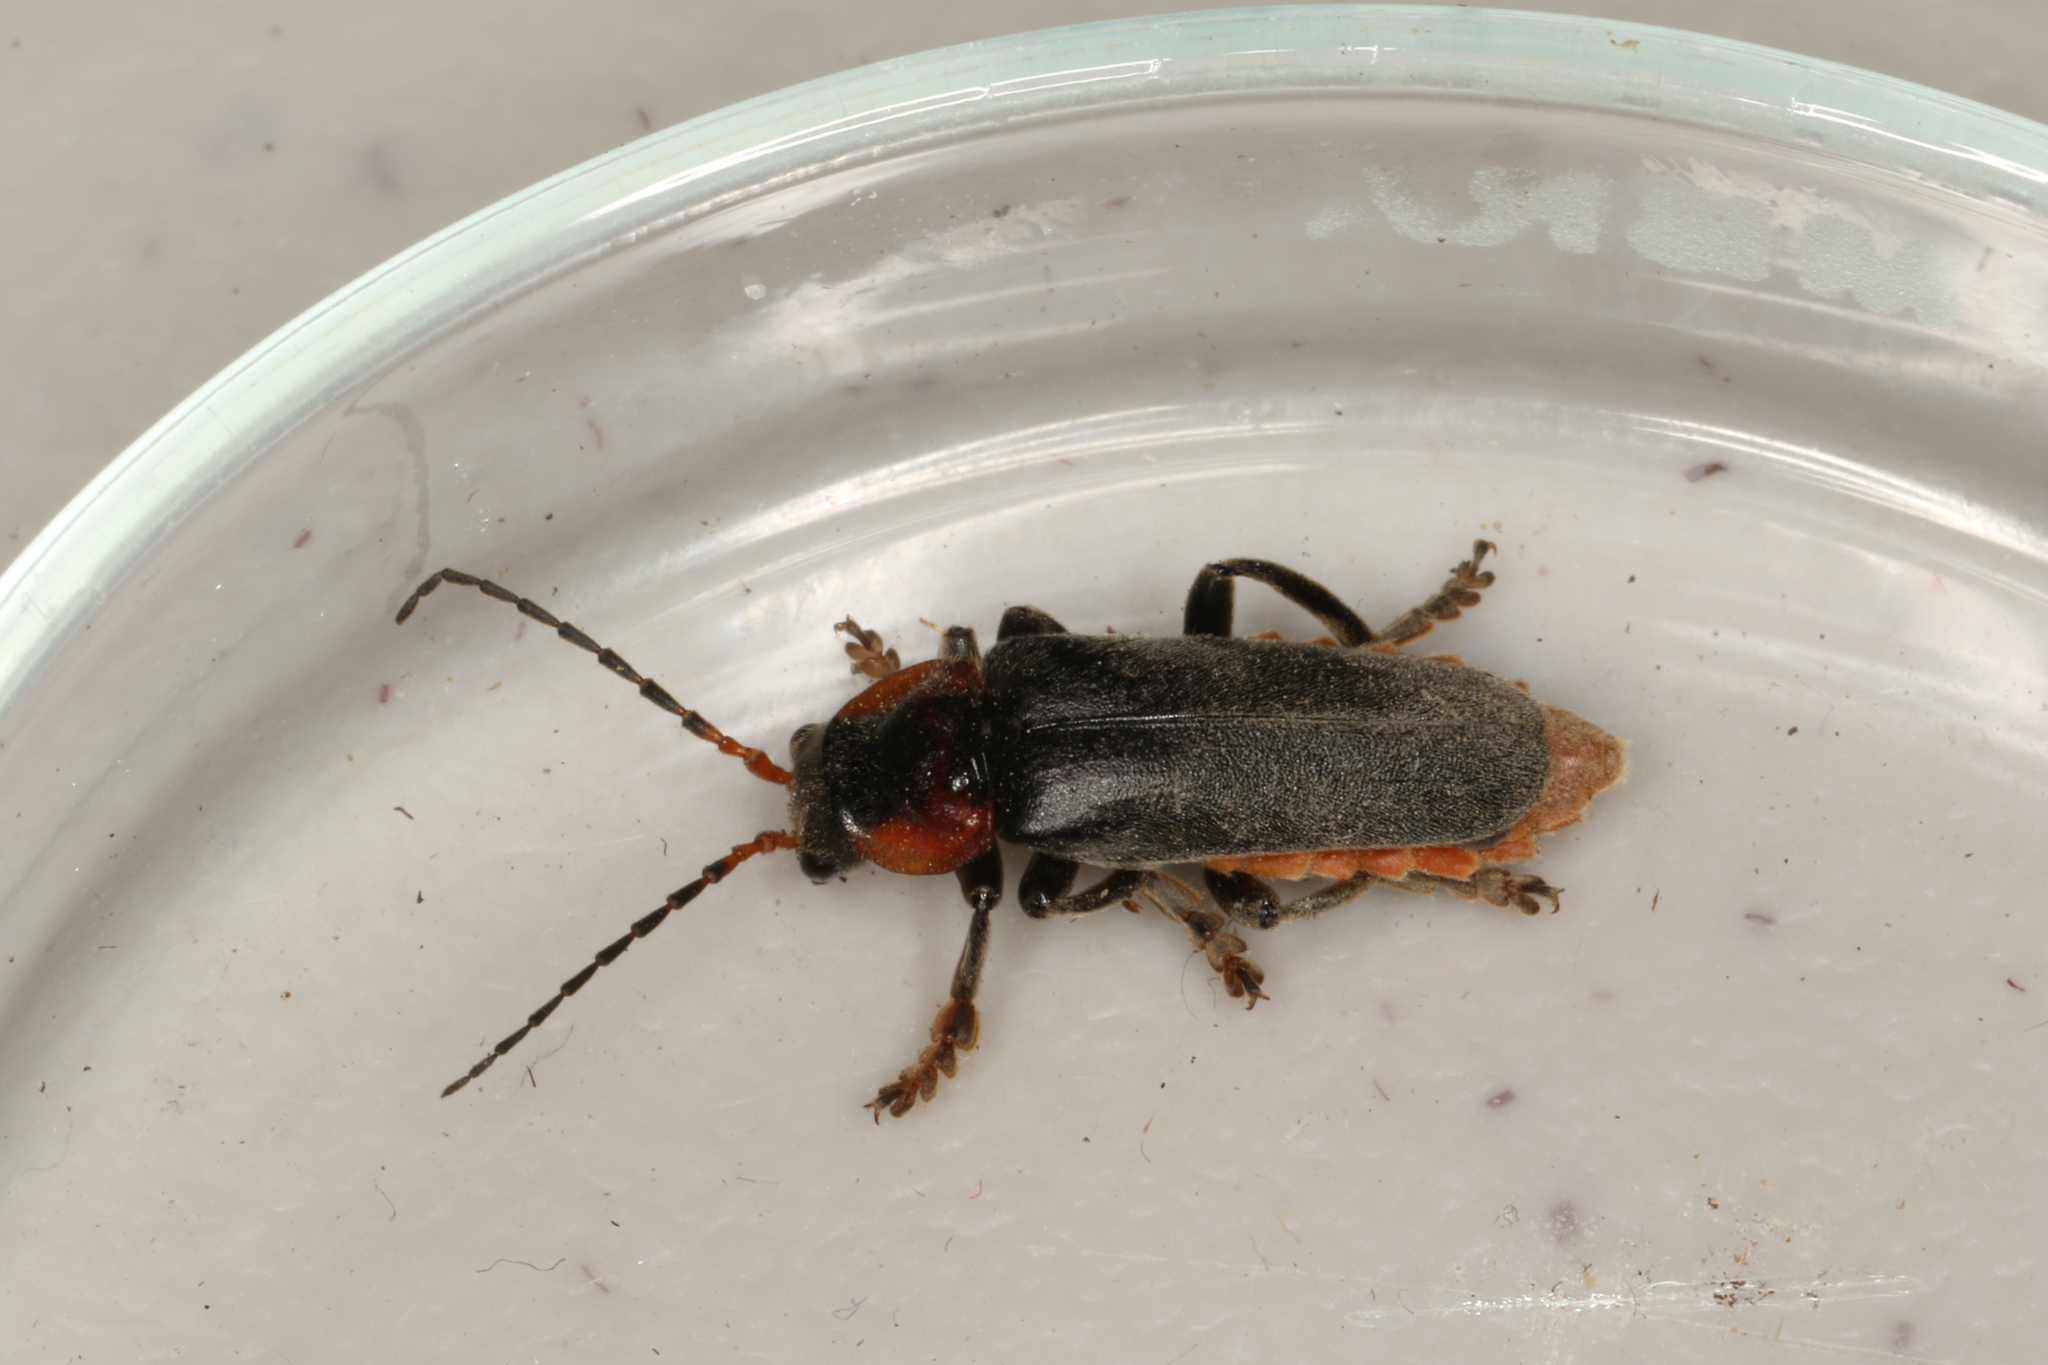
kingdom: Animalia
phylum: Arthropoda
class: Insecta
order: Coleoptera
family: Cantharidae
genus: Cantharis
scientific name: Cantharis fusca
